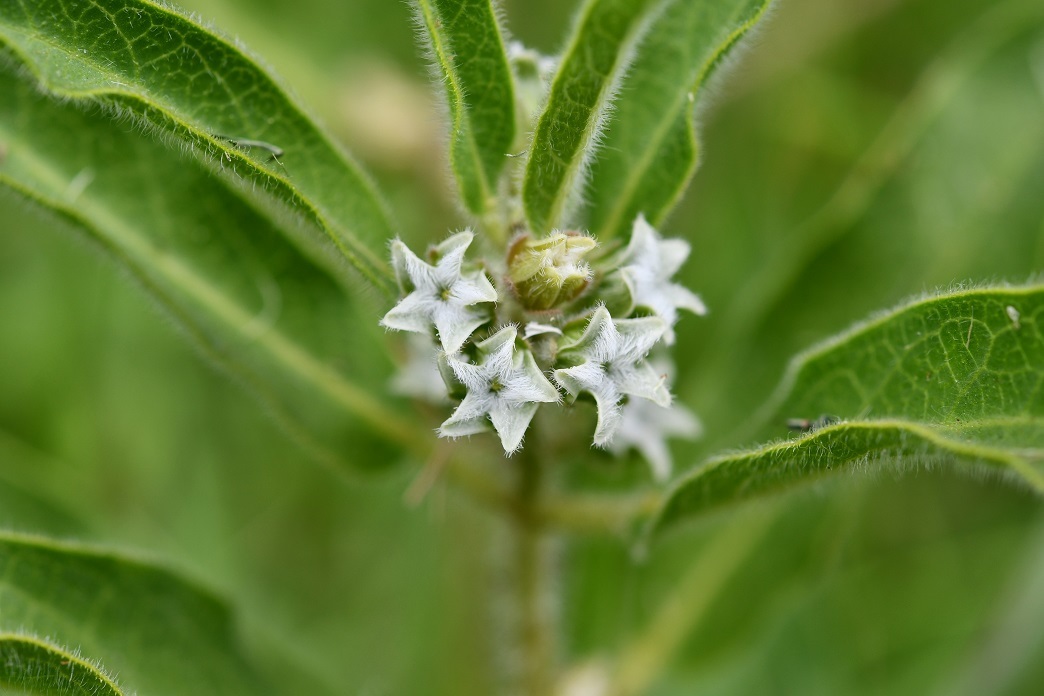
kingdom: Plantae
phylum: Tracheophyta
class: Magnoliopsida
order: Gentianales
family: Apocynaceae
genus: Pherotrichis
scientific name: Pherotrichis villosa
